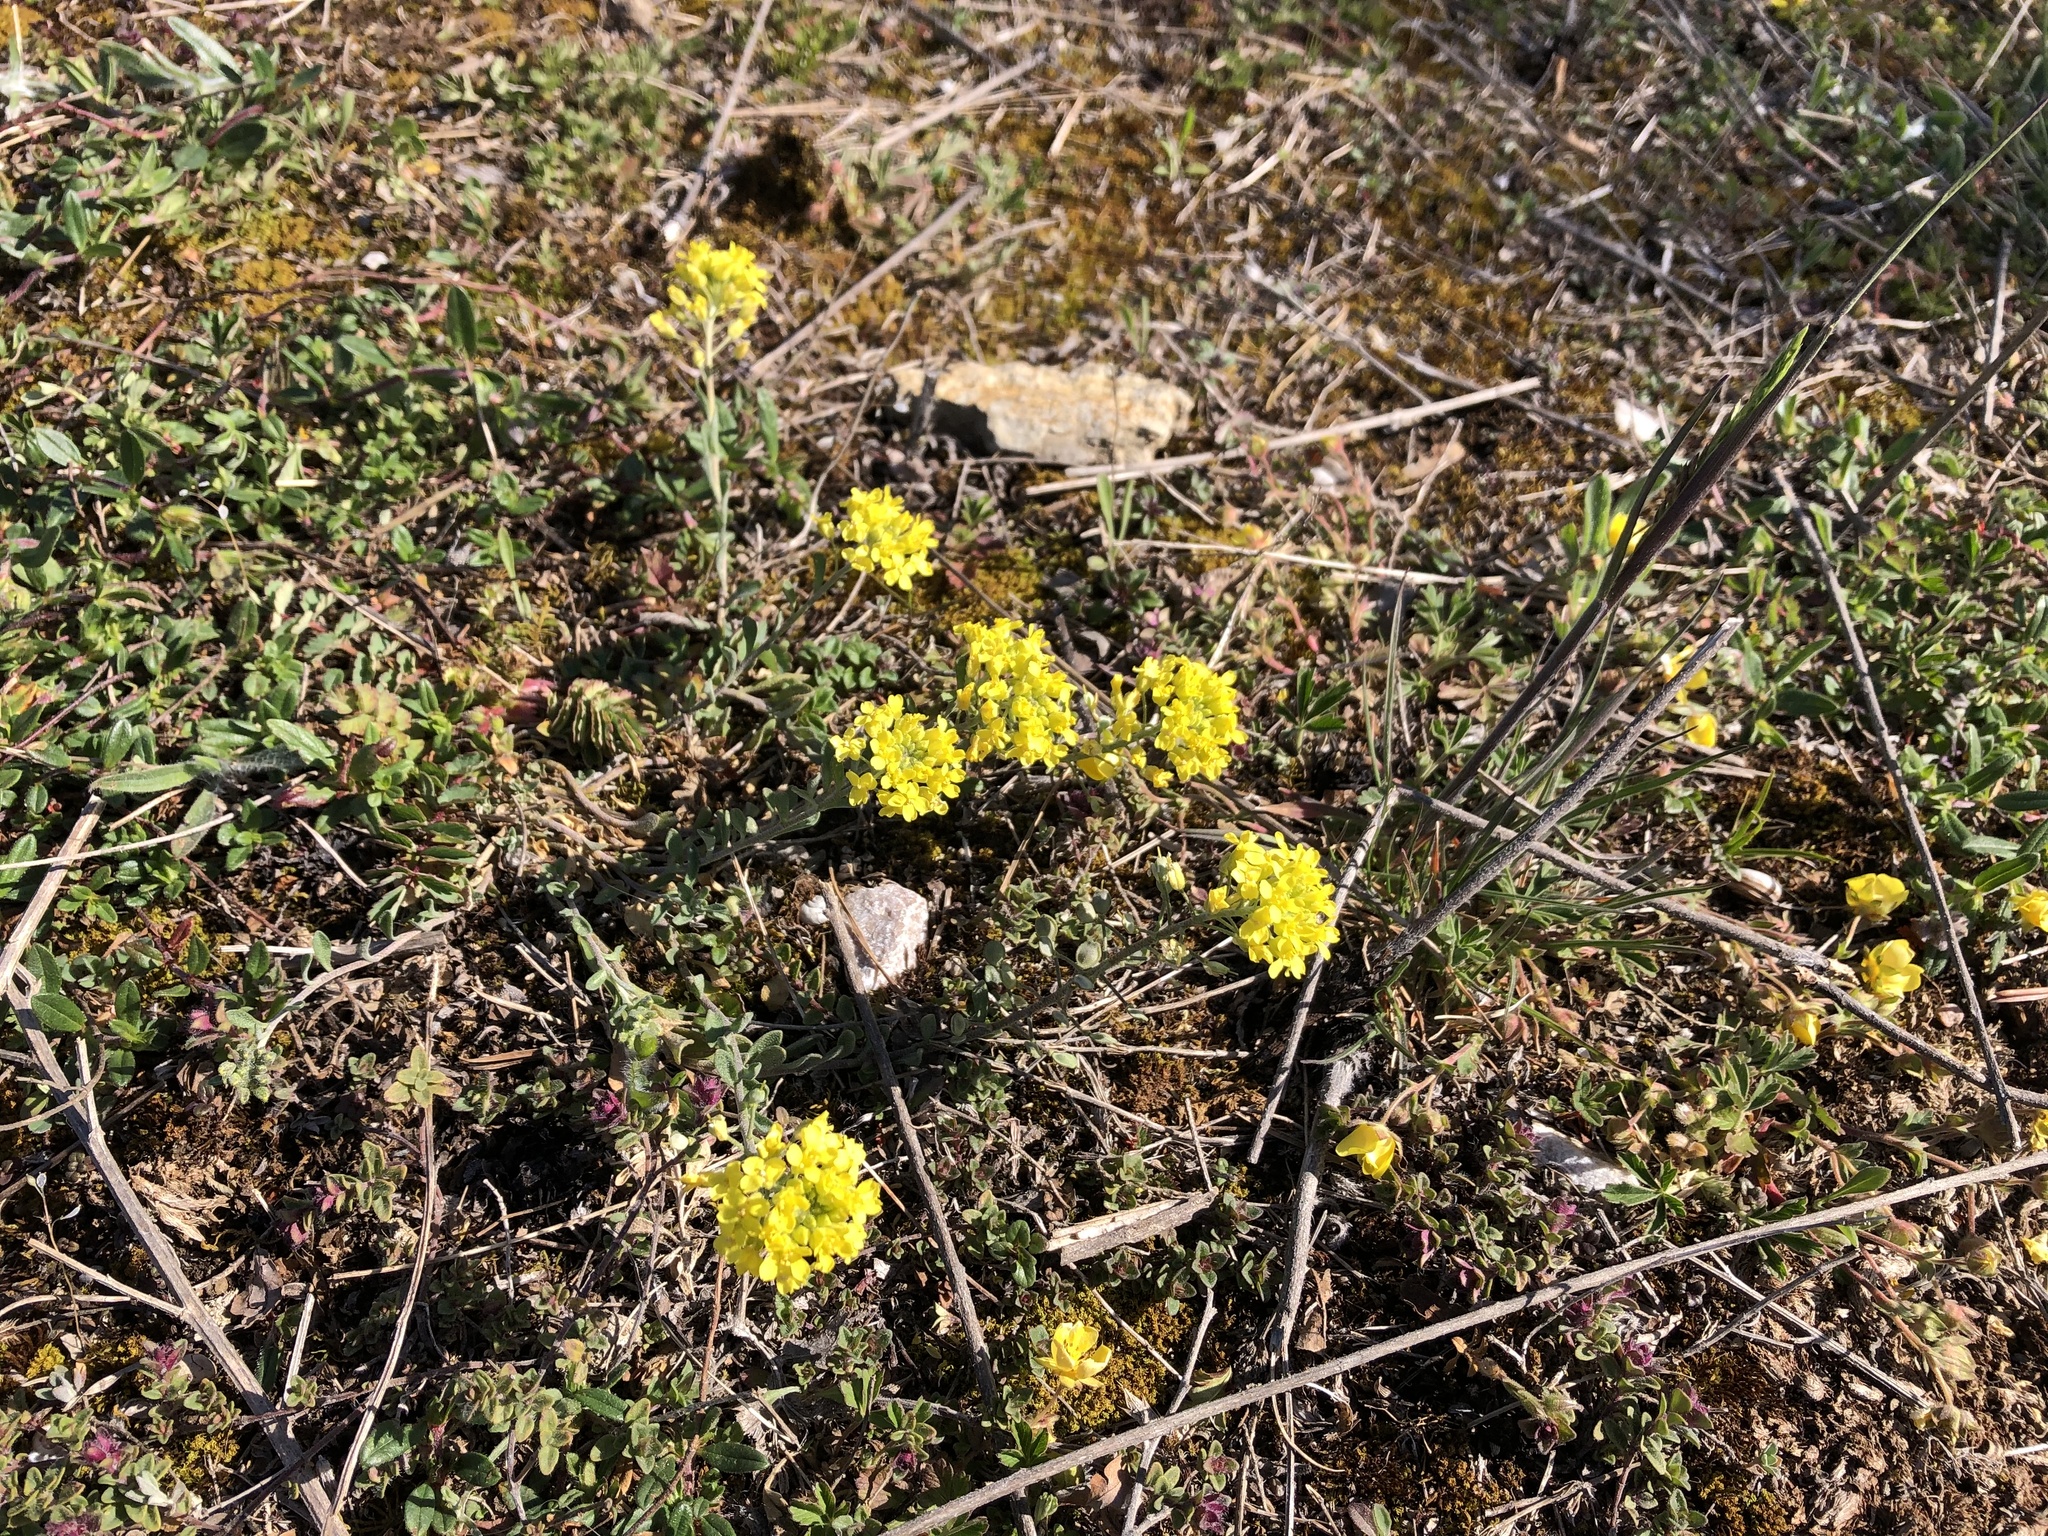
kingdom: Plantae
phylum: Tracheophyta
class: Magnoliopsida
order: Brassicales
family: Brassicaceae
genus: Alyssum
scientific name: Alyssum gmelinii
